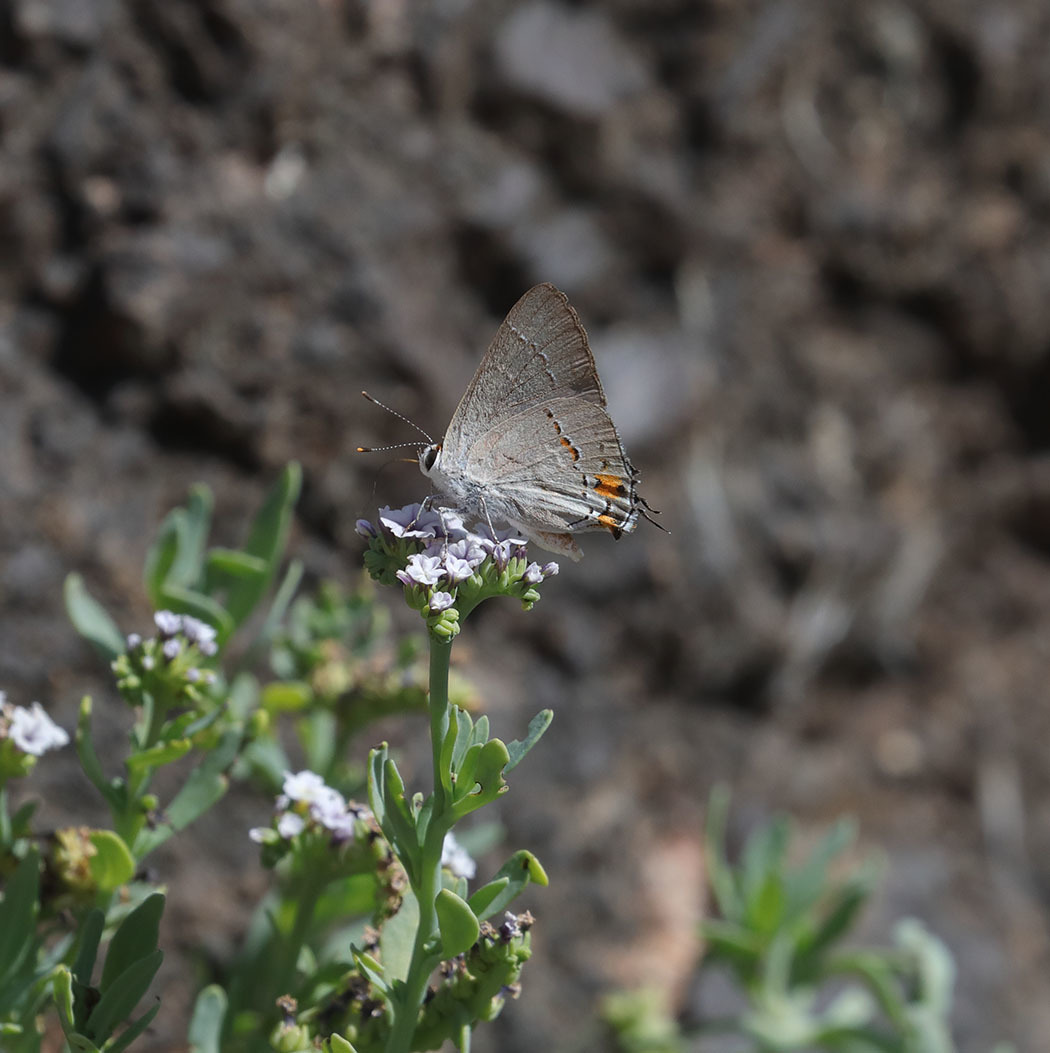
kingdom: Animalia
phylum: Arthropoda
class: Insecta
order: Lepidoptera
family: Lycaenidae
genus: Strymon
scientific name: Strymon melinus
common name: Gray hairstreak
